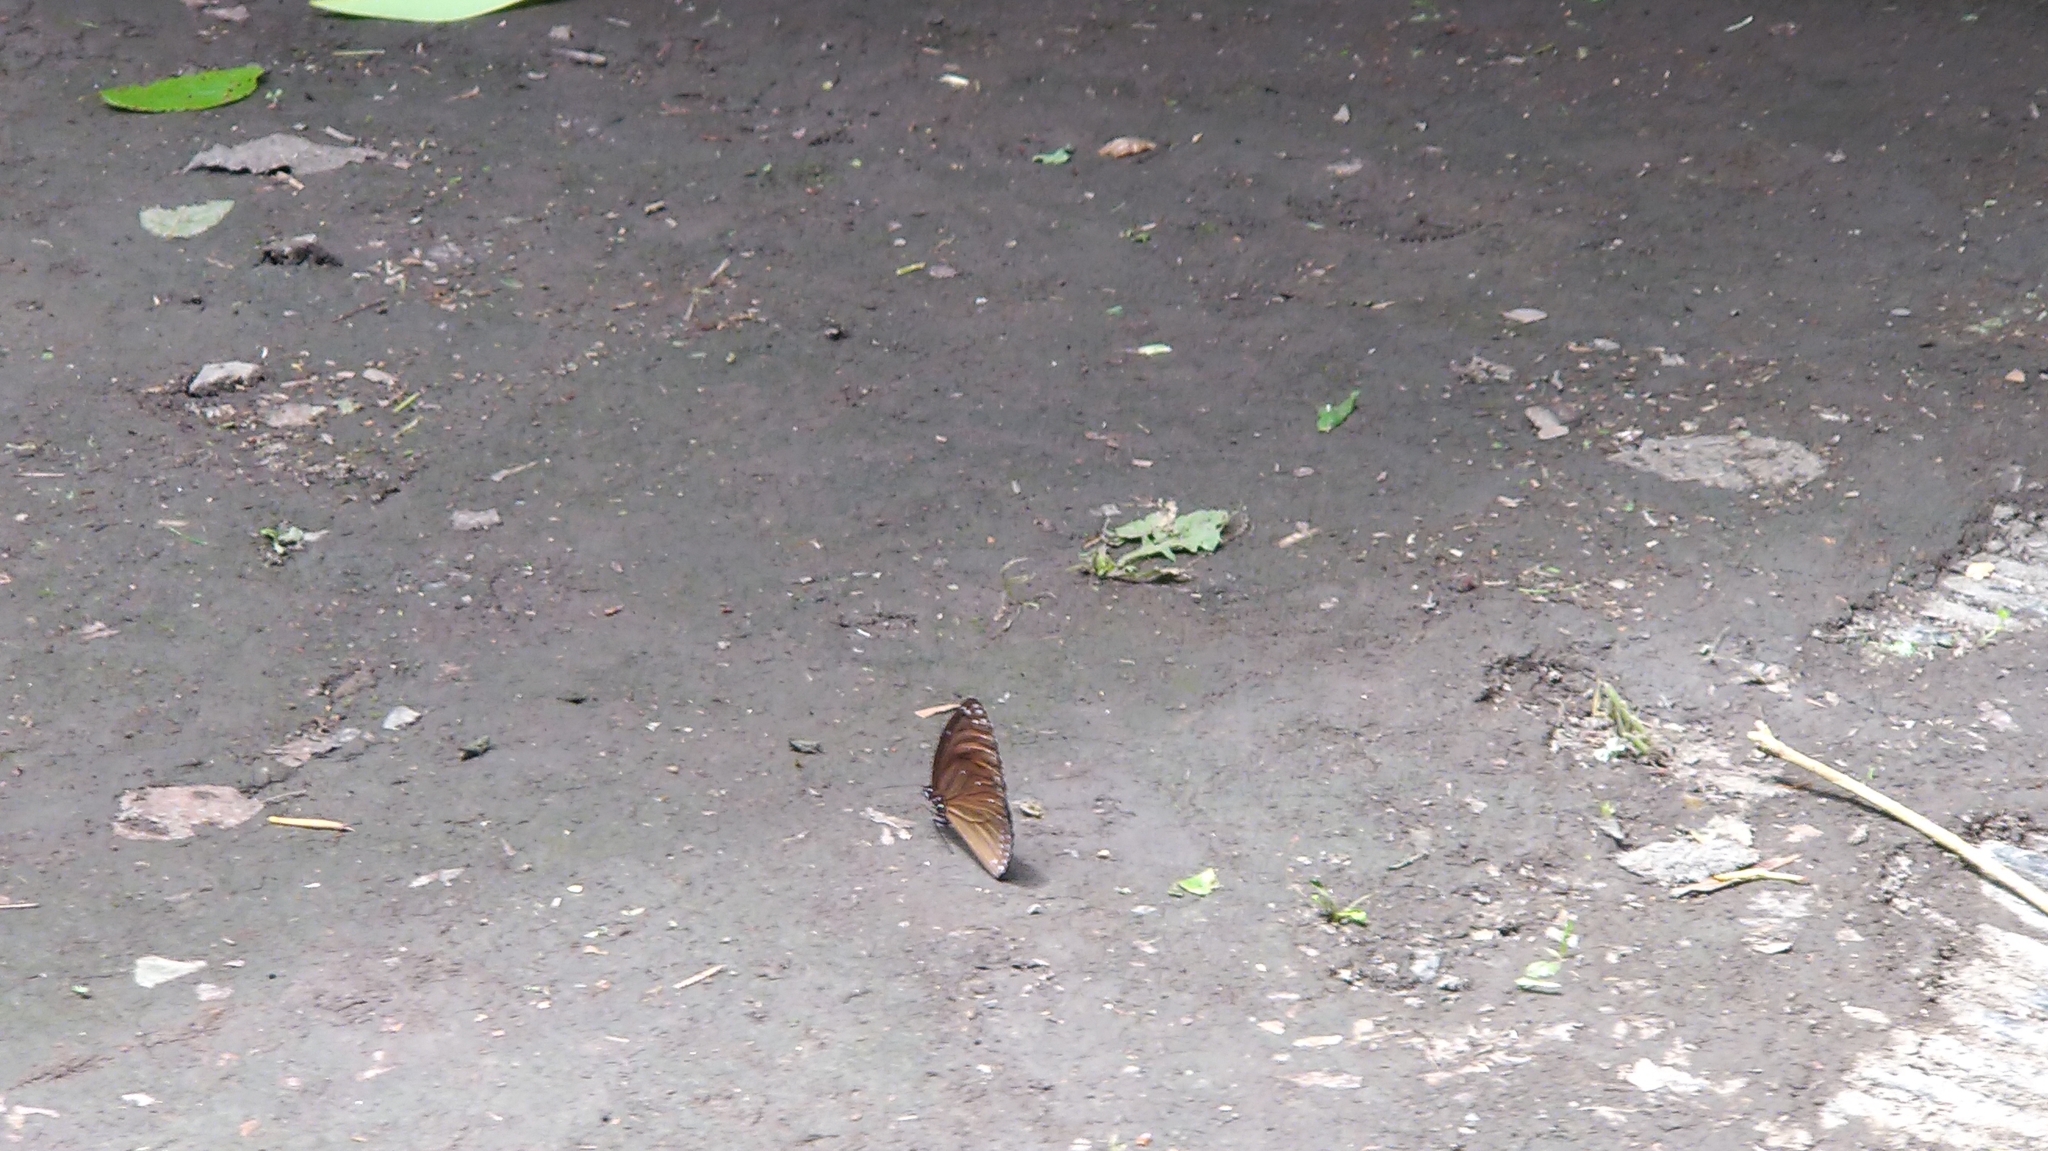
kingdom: Animalia
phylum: Arthropoda
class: Insecta
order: Lepidoptera
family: Nymphalidae
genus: Euploea
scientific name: Euploea eunice
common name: Blue-banded king crow butterfly
